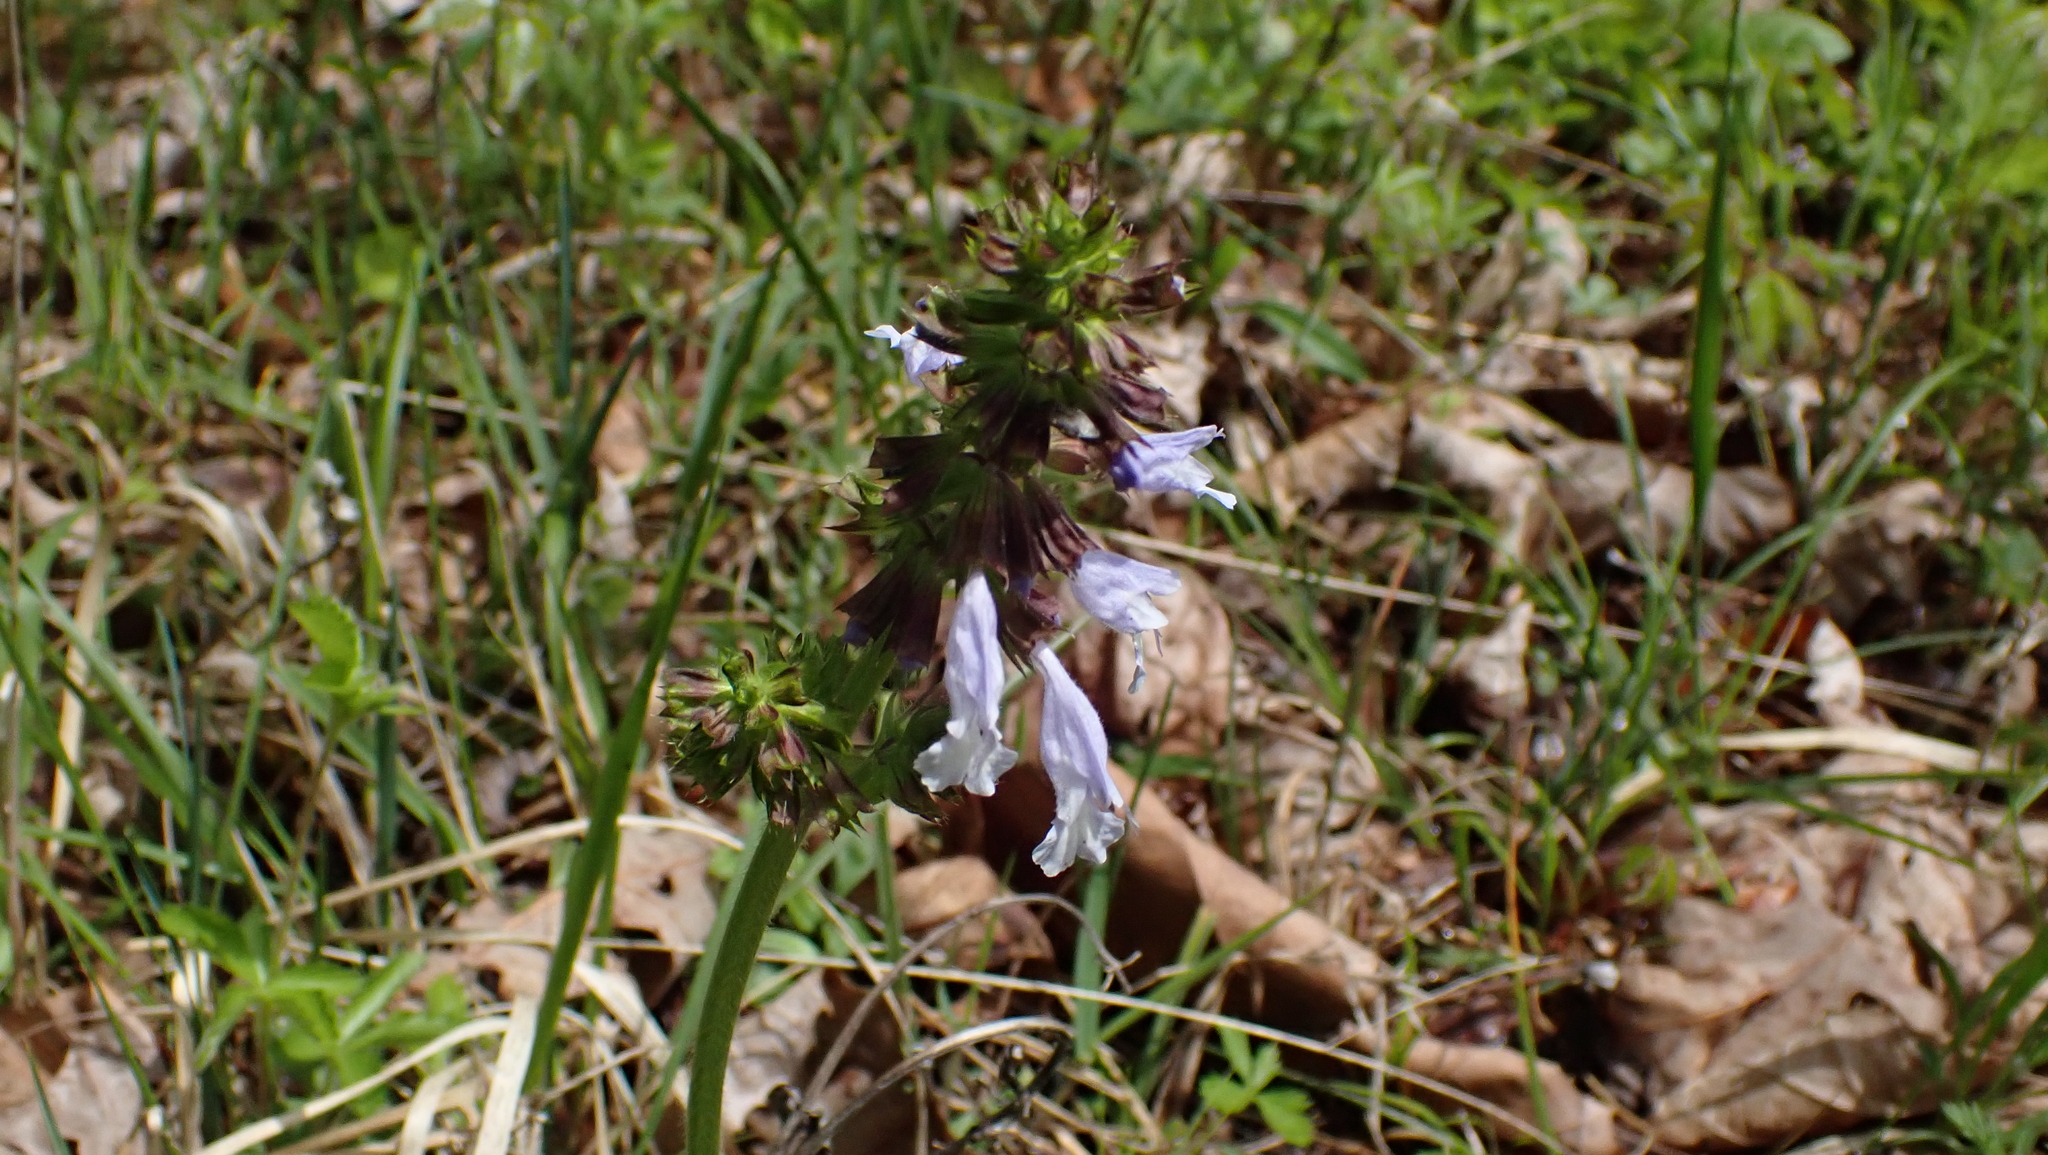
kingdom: Plantae
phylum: Tracheophyta
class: Magnoliopsida
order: Lamiales
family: Lamiaceae
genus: Salvia
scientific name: Salvia lyrata
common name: Cancerweed
